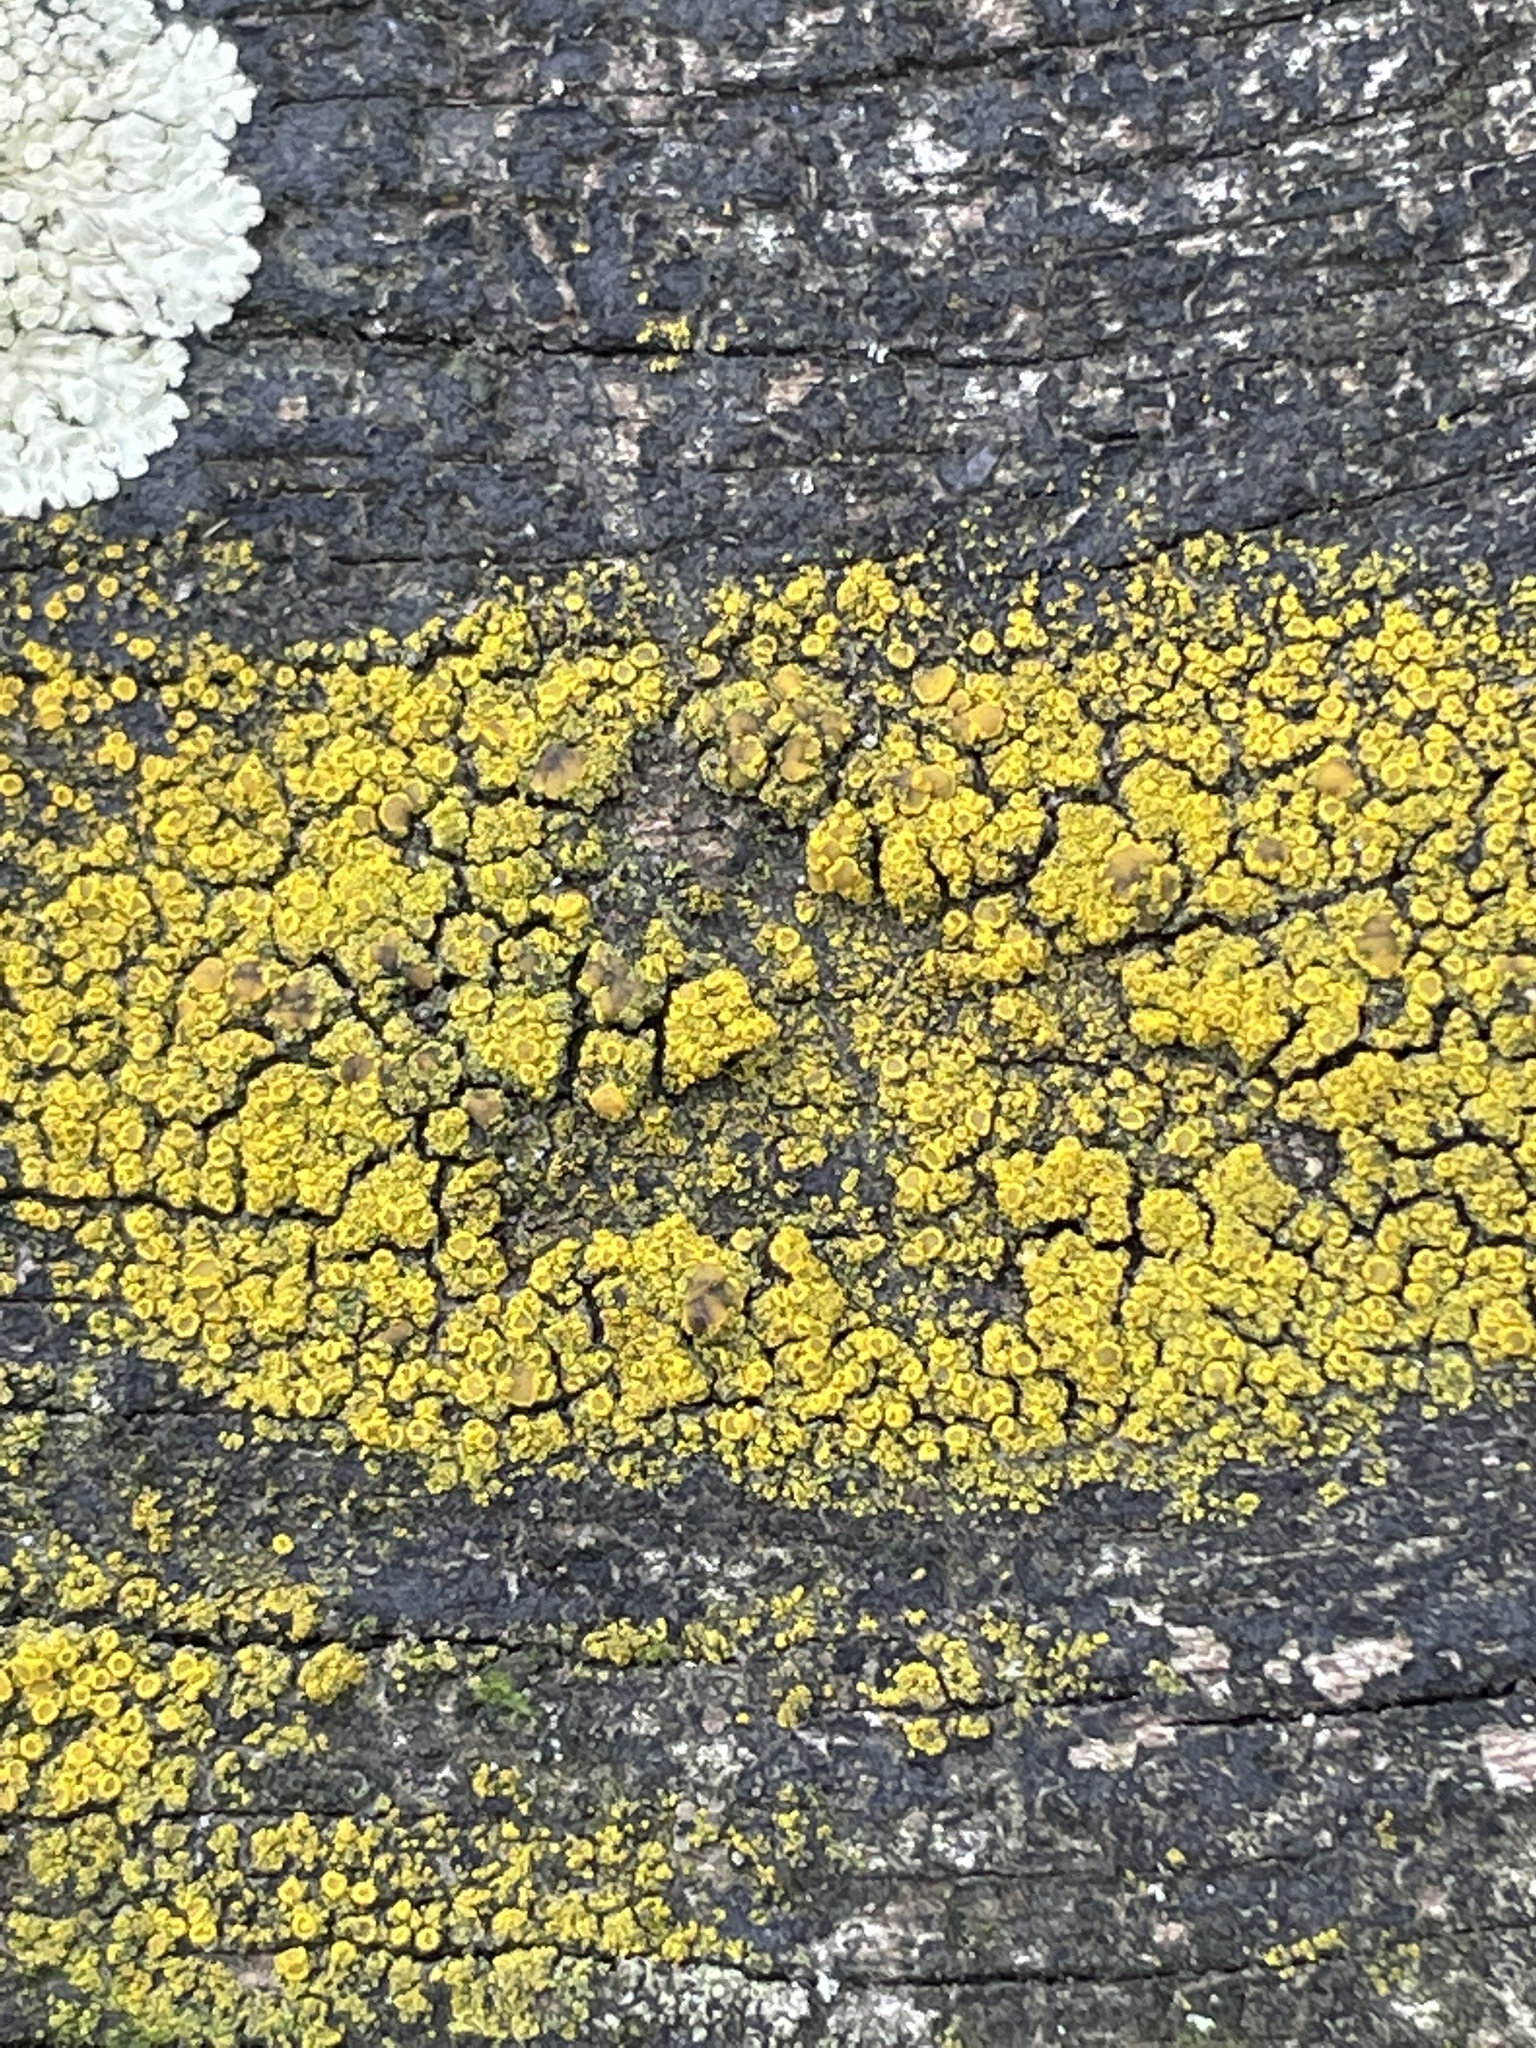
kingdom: Fungi
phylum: Ascomycota
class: Candelariomycetes
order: Candelariales
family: Candelariaceae
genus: Candelariella
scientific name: Candelariella vitellina
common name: Common goldspeck
